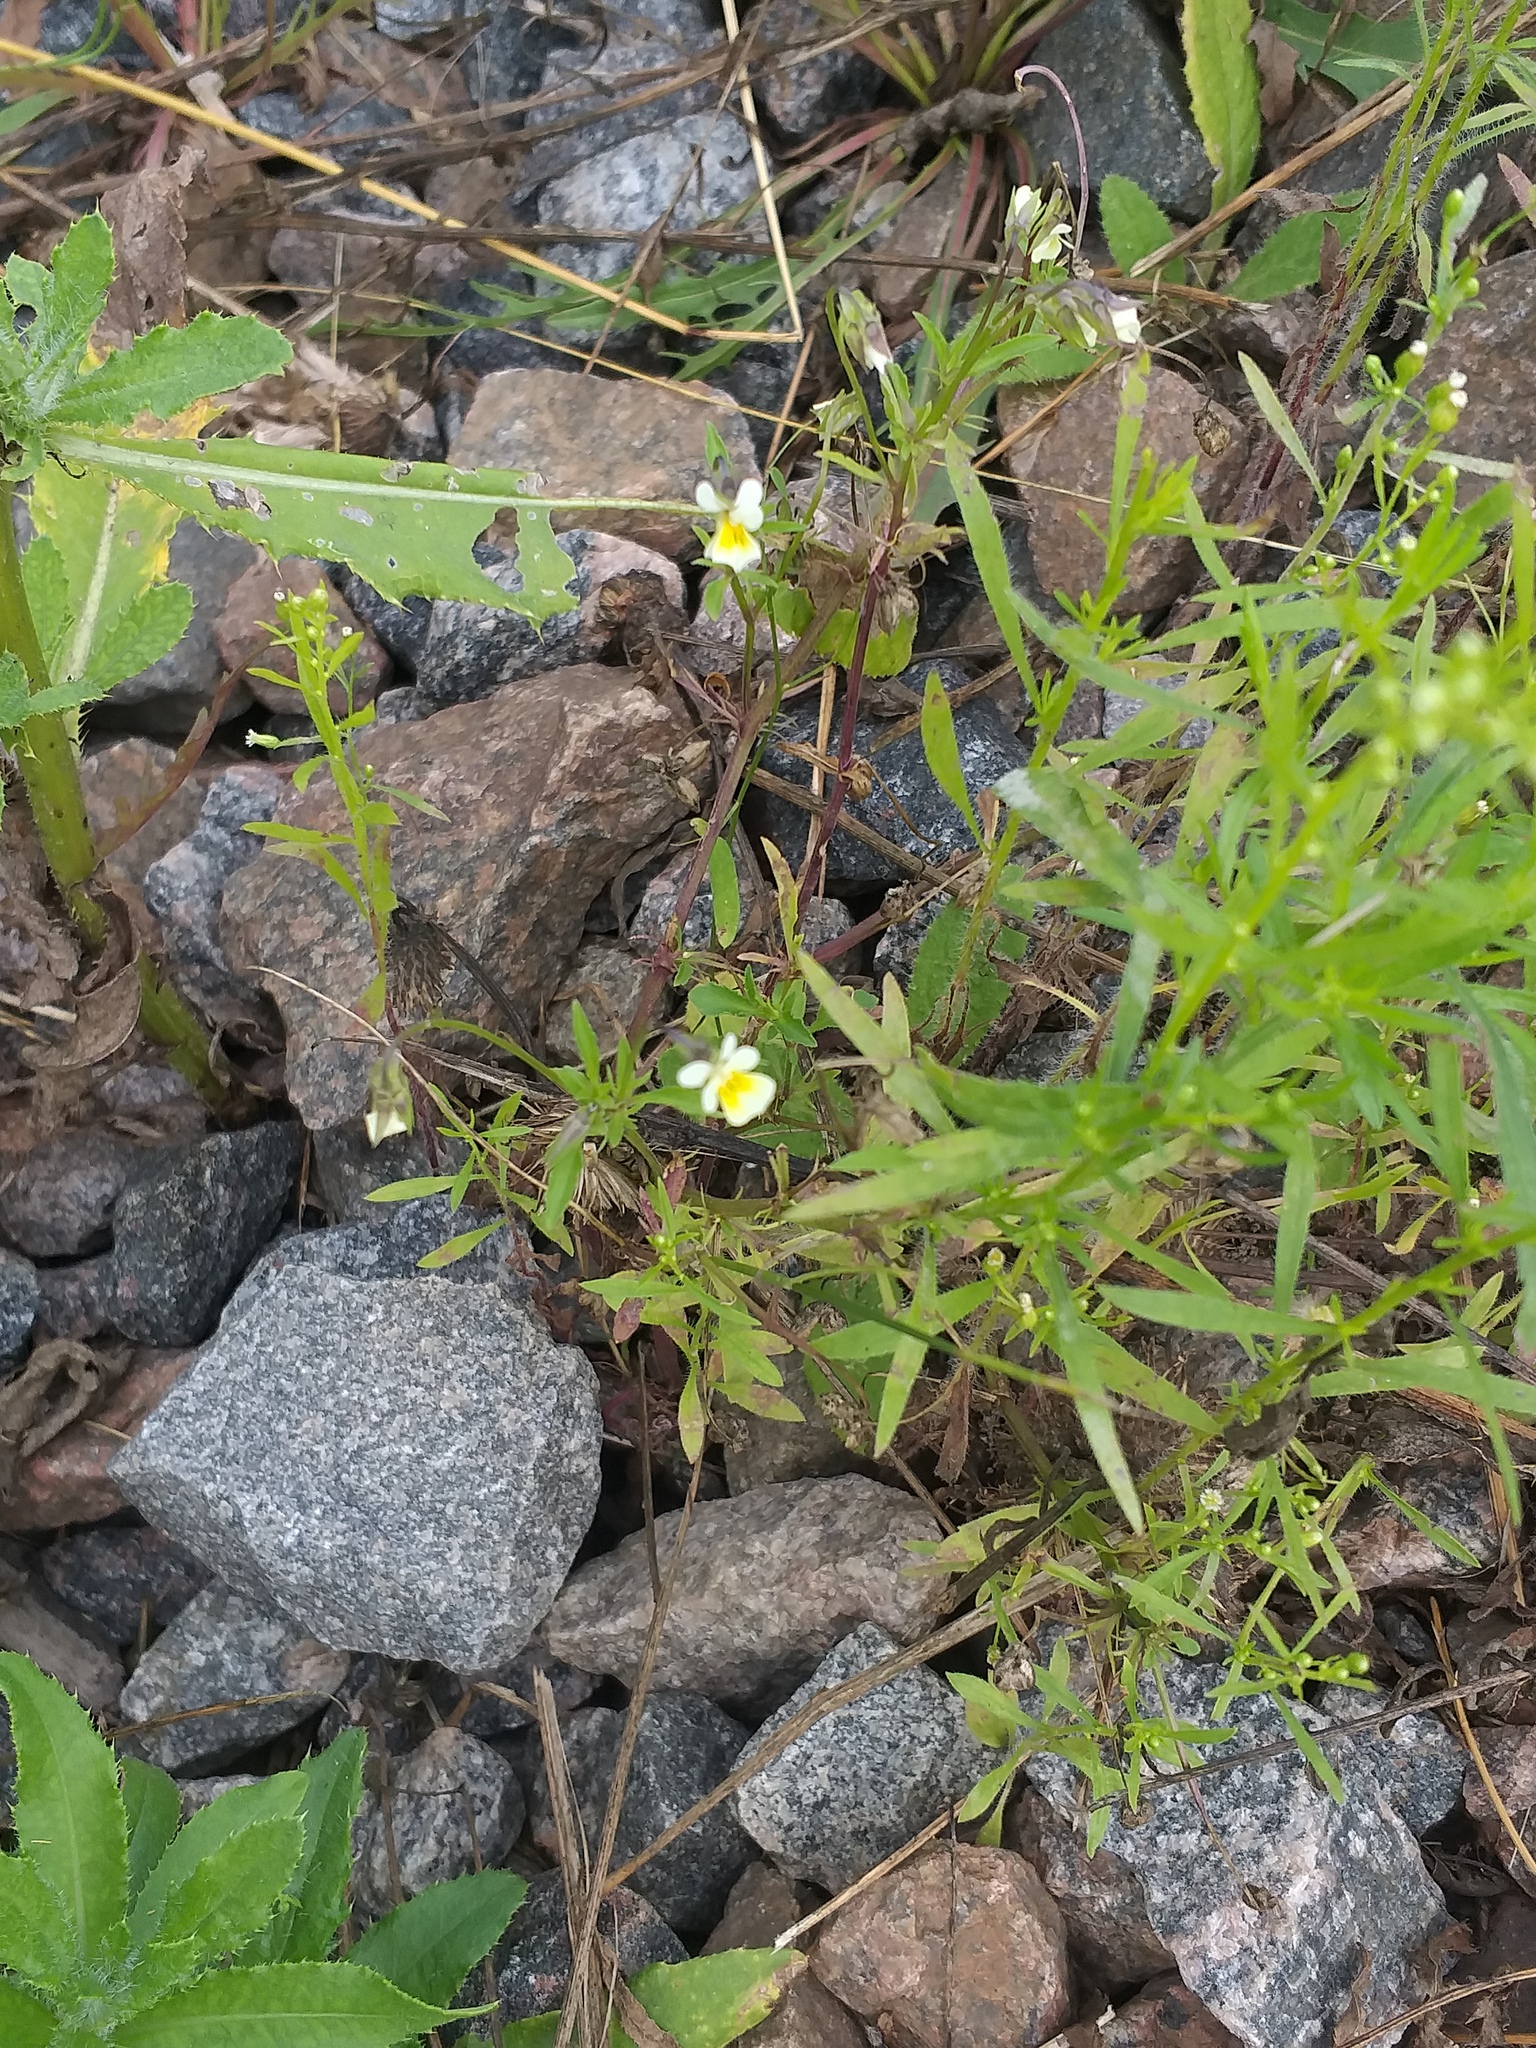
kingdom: Plantae
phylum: Tracheophyta
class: Magnoliopsida
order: Malpighiales
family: Violaceae
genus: Viola
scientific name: Viola arvensis
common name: Field pansy
